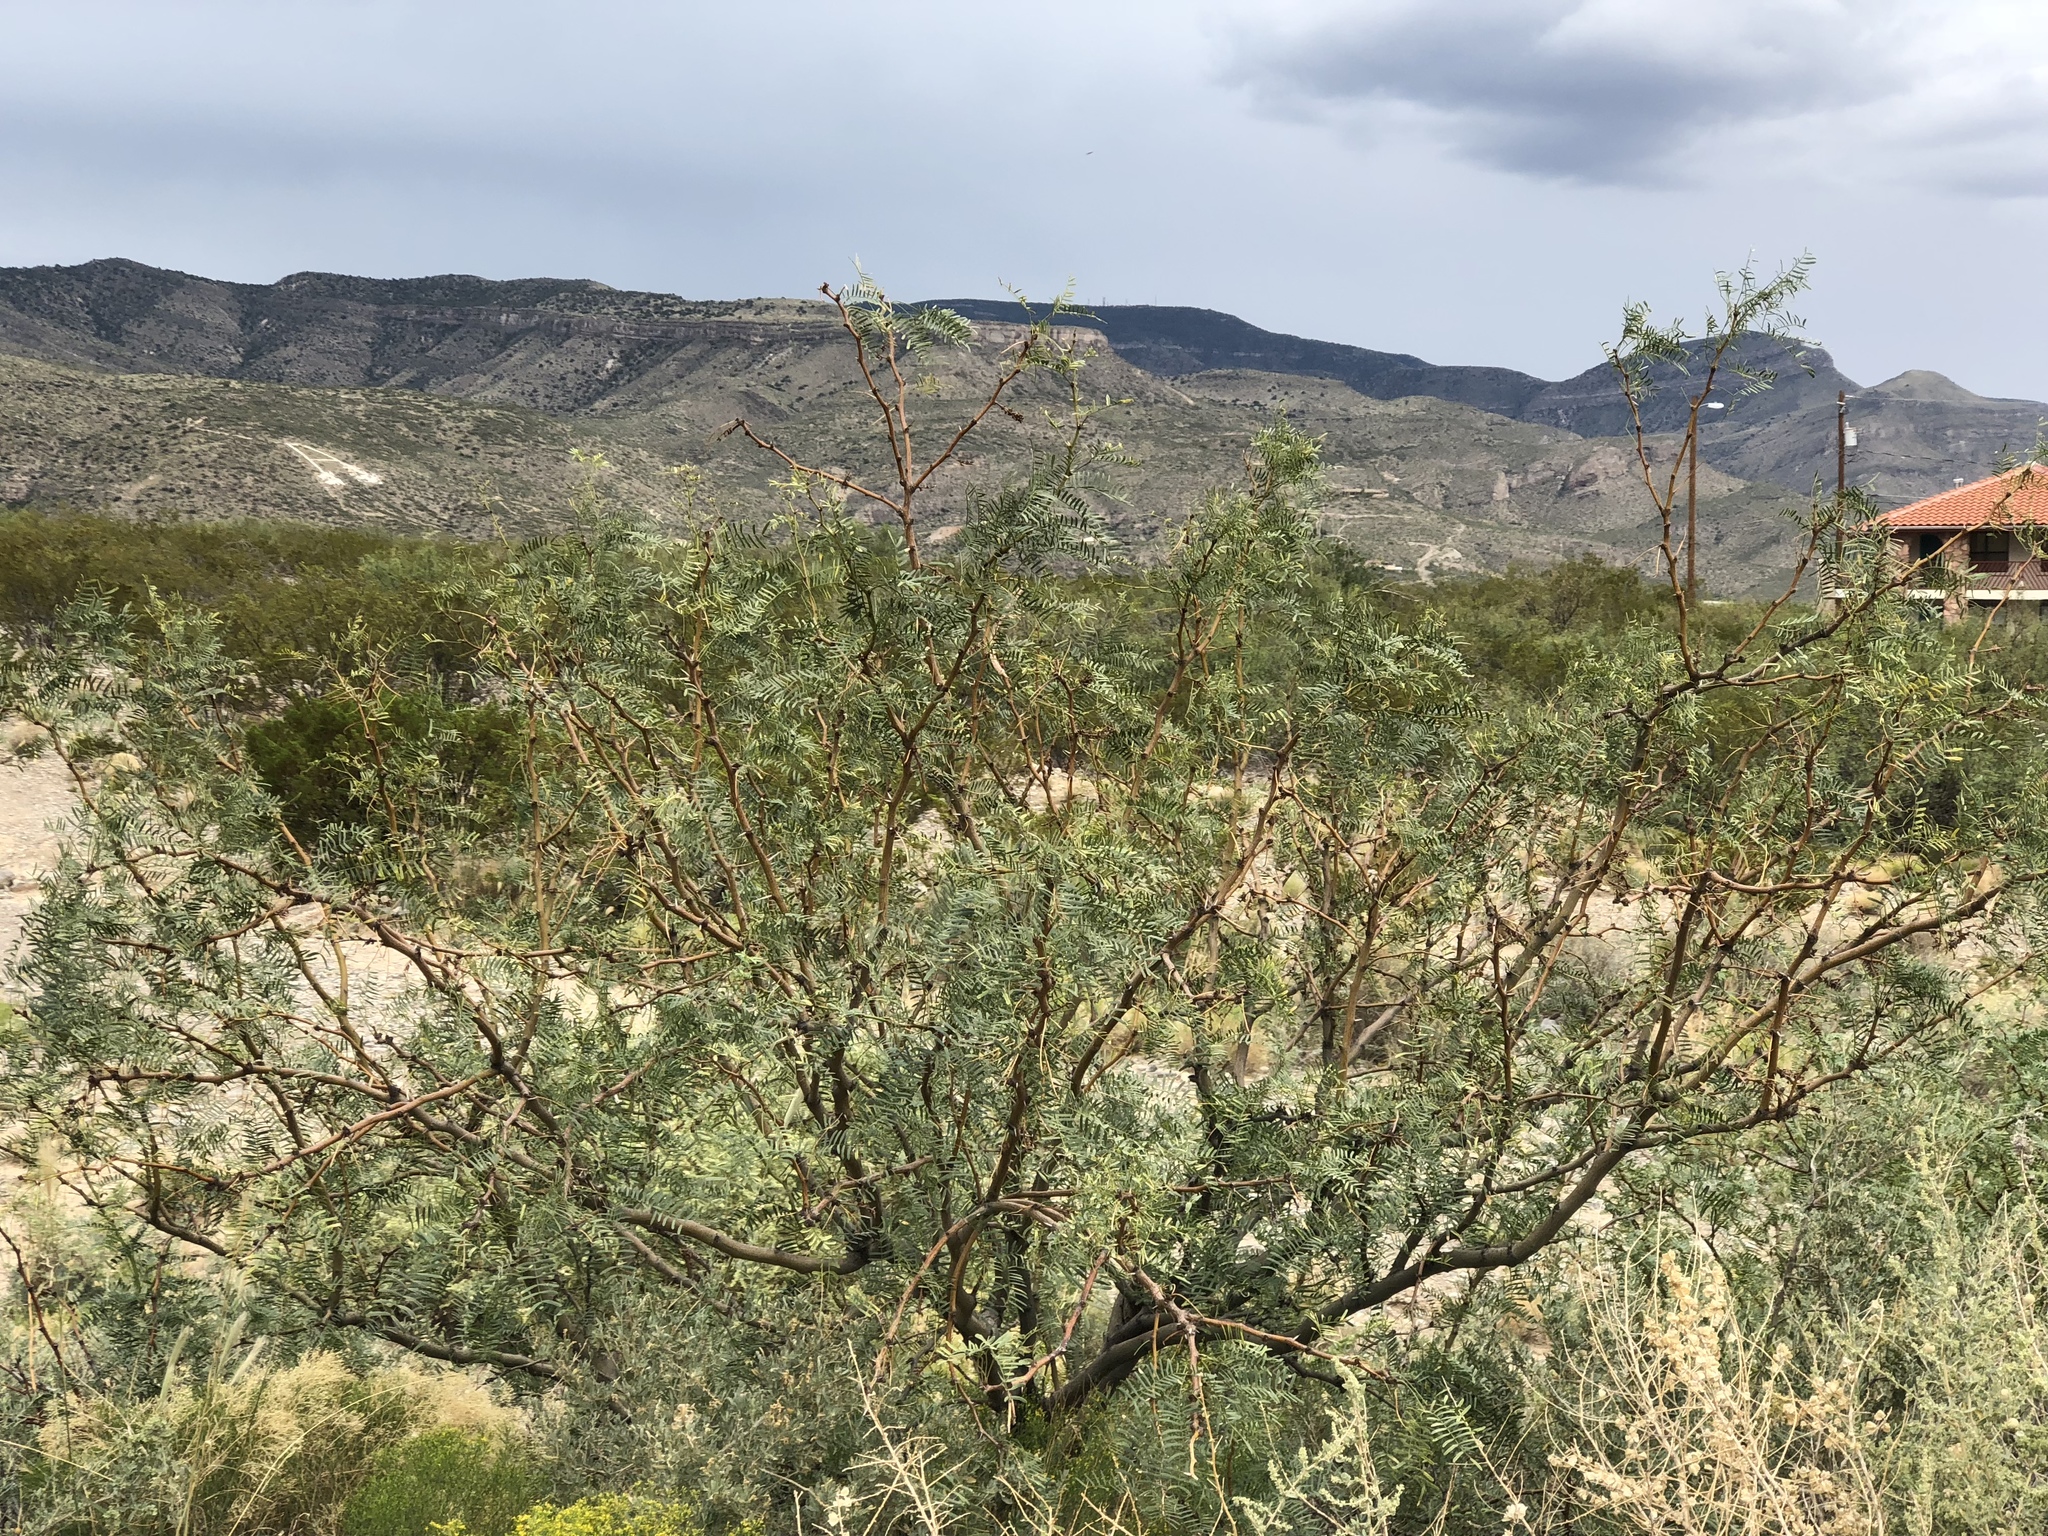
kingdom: Plantae
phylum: Tracheophyta
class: Magnoliopsida
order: Fabales
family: Fabaceae
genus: Prosopis
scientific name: Prosopis glandulosa
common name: Honey mesquite
